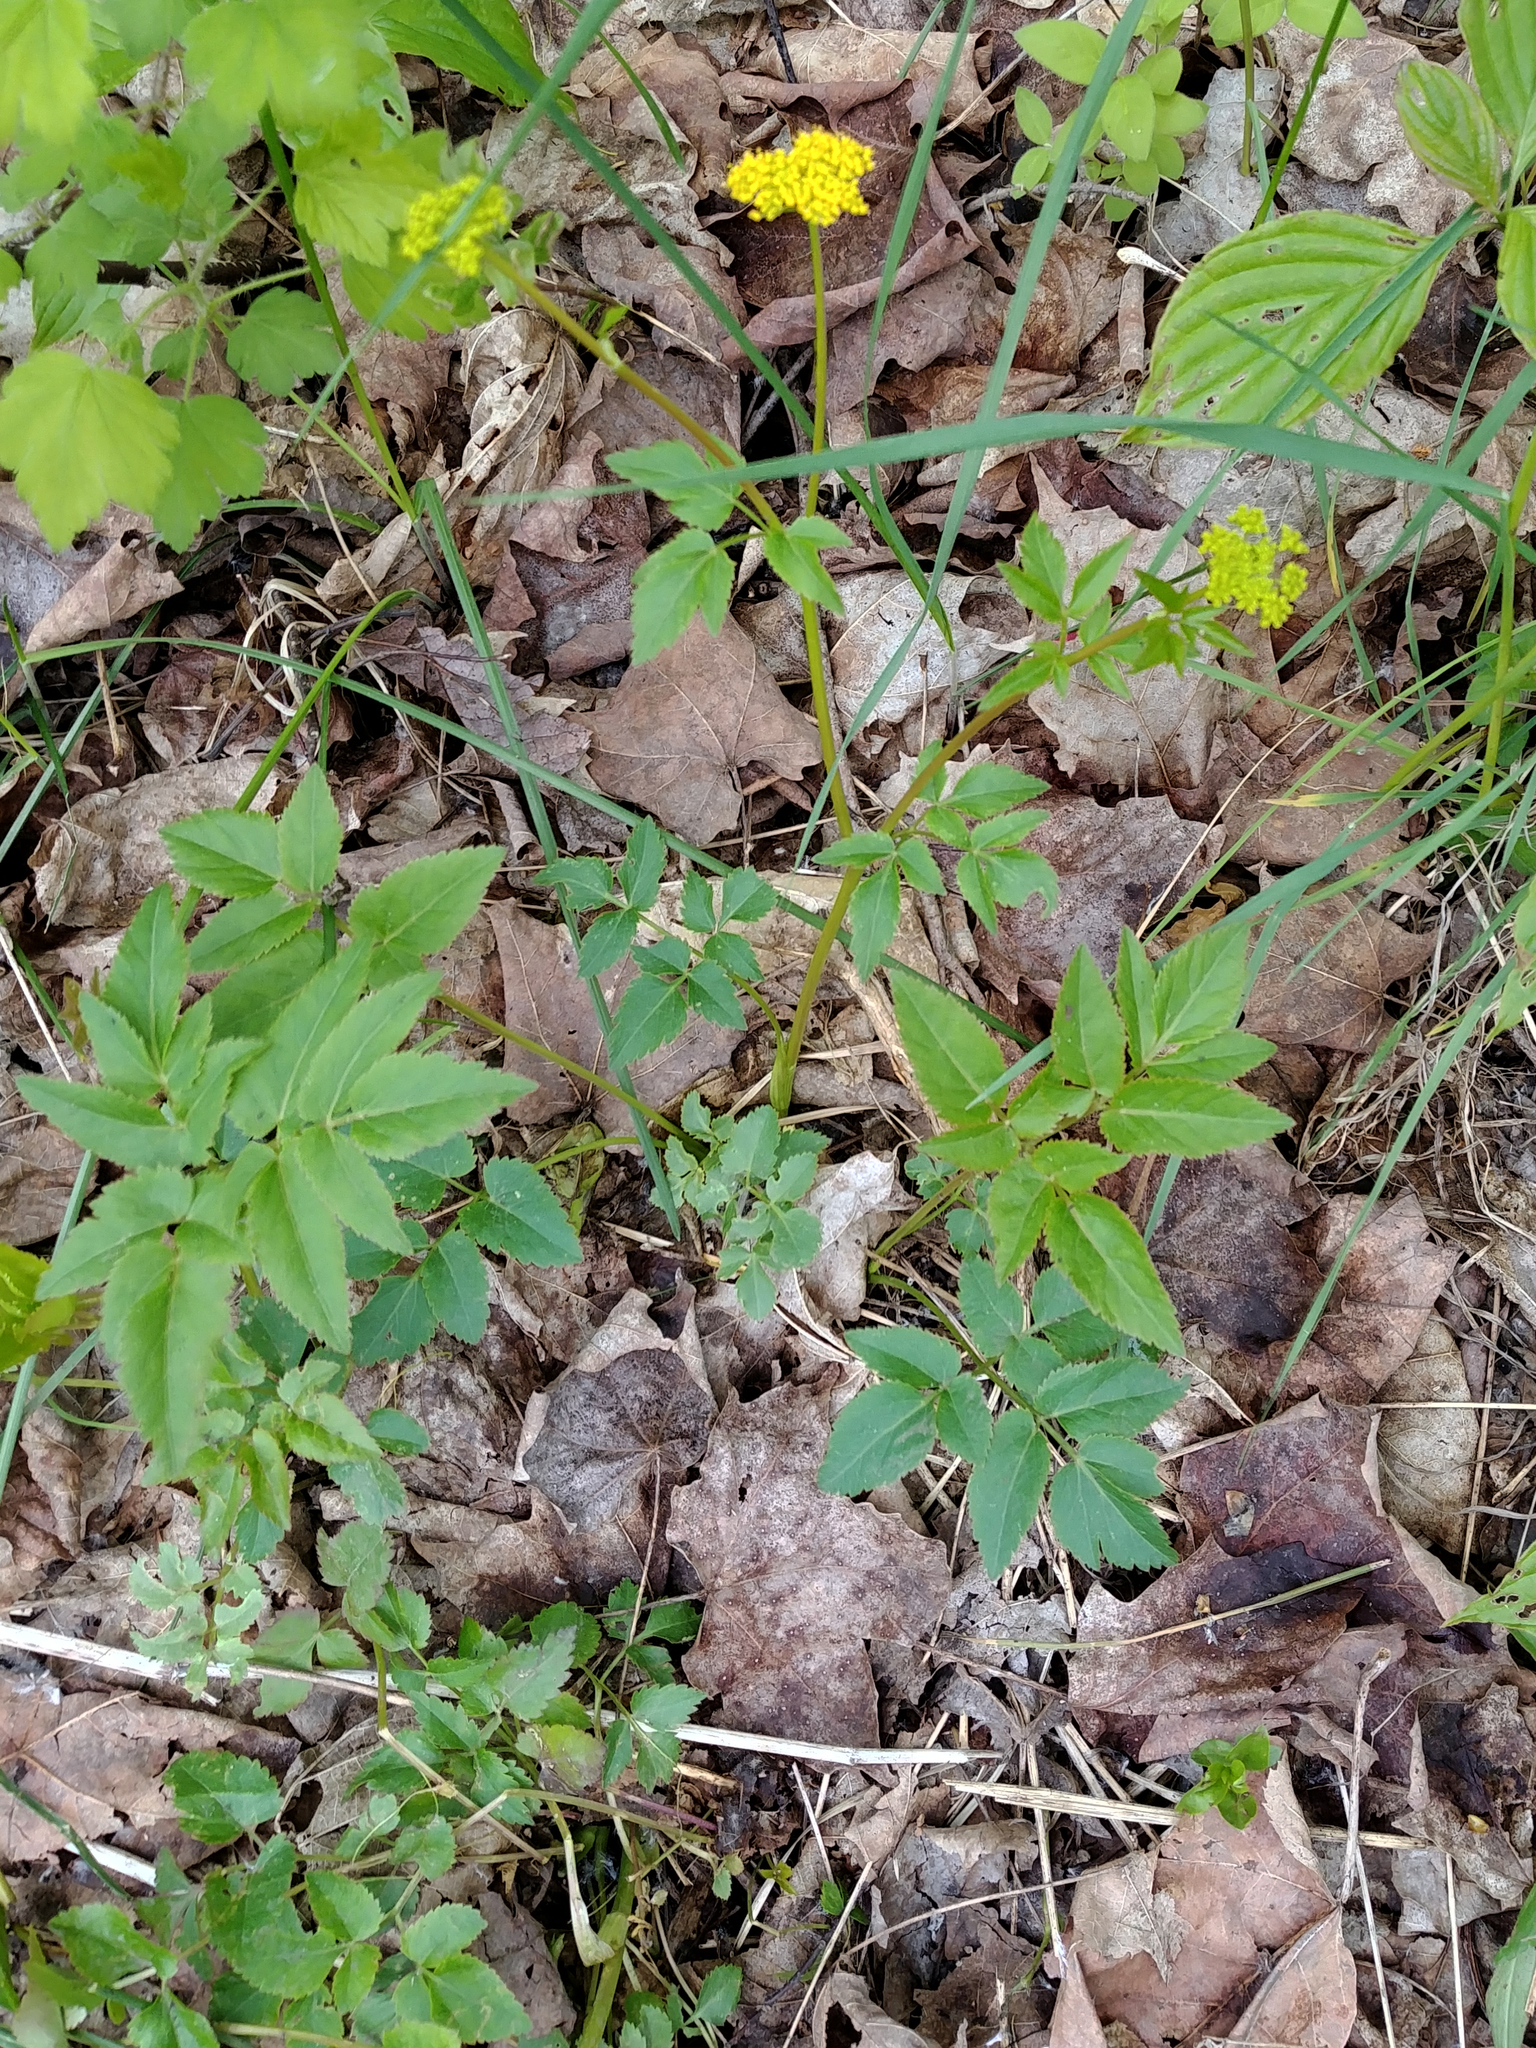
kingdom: Plantae
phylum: Tracheophyta
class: Magnoliopsida
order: Apiales
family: Apiaceae
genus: Zizia
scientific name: Zizia aurea
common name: Golden alexanders
